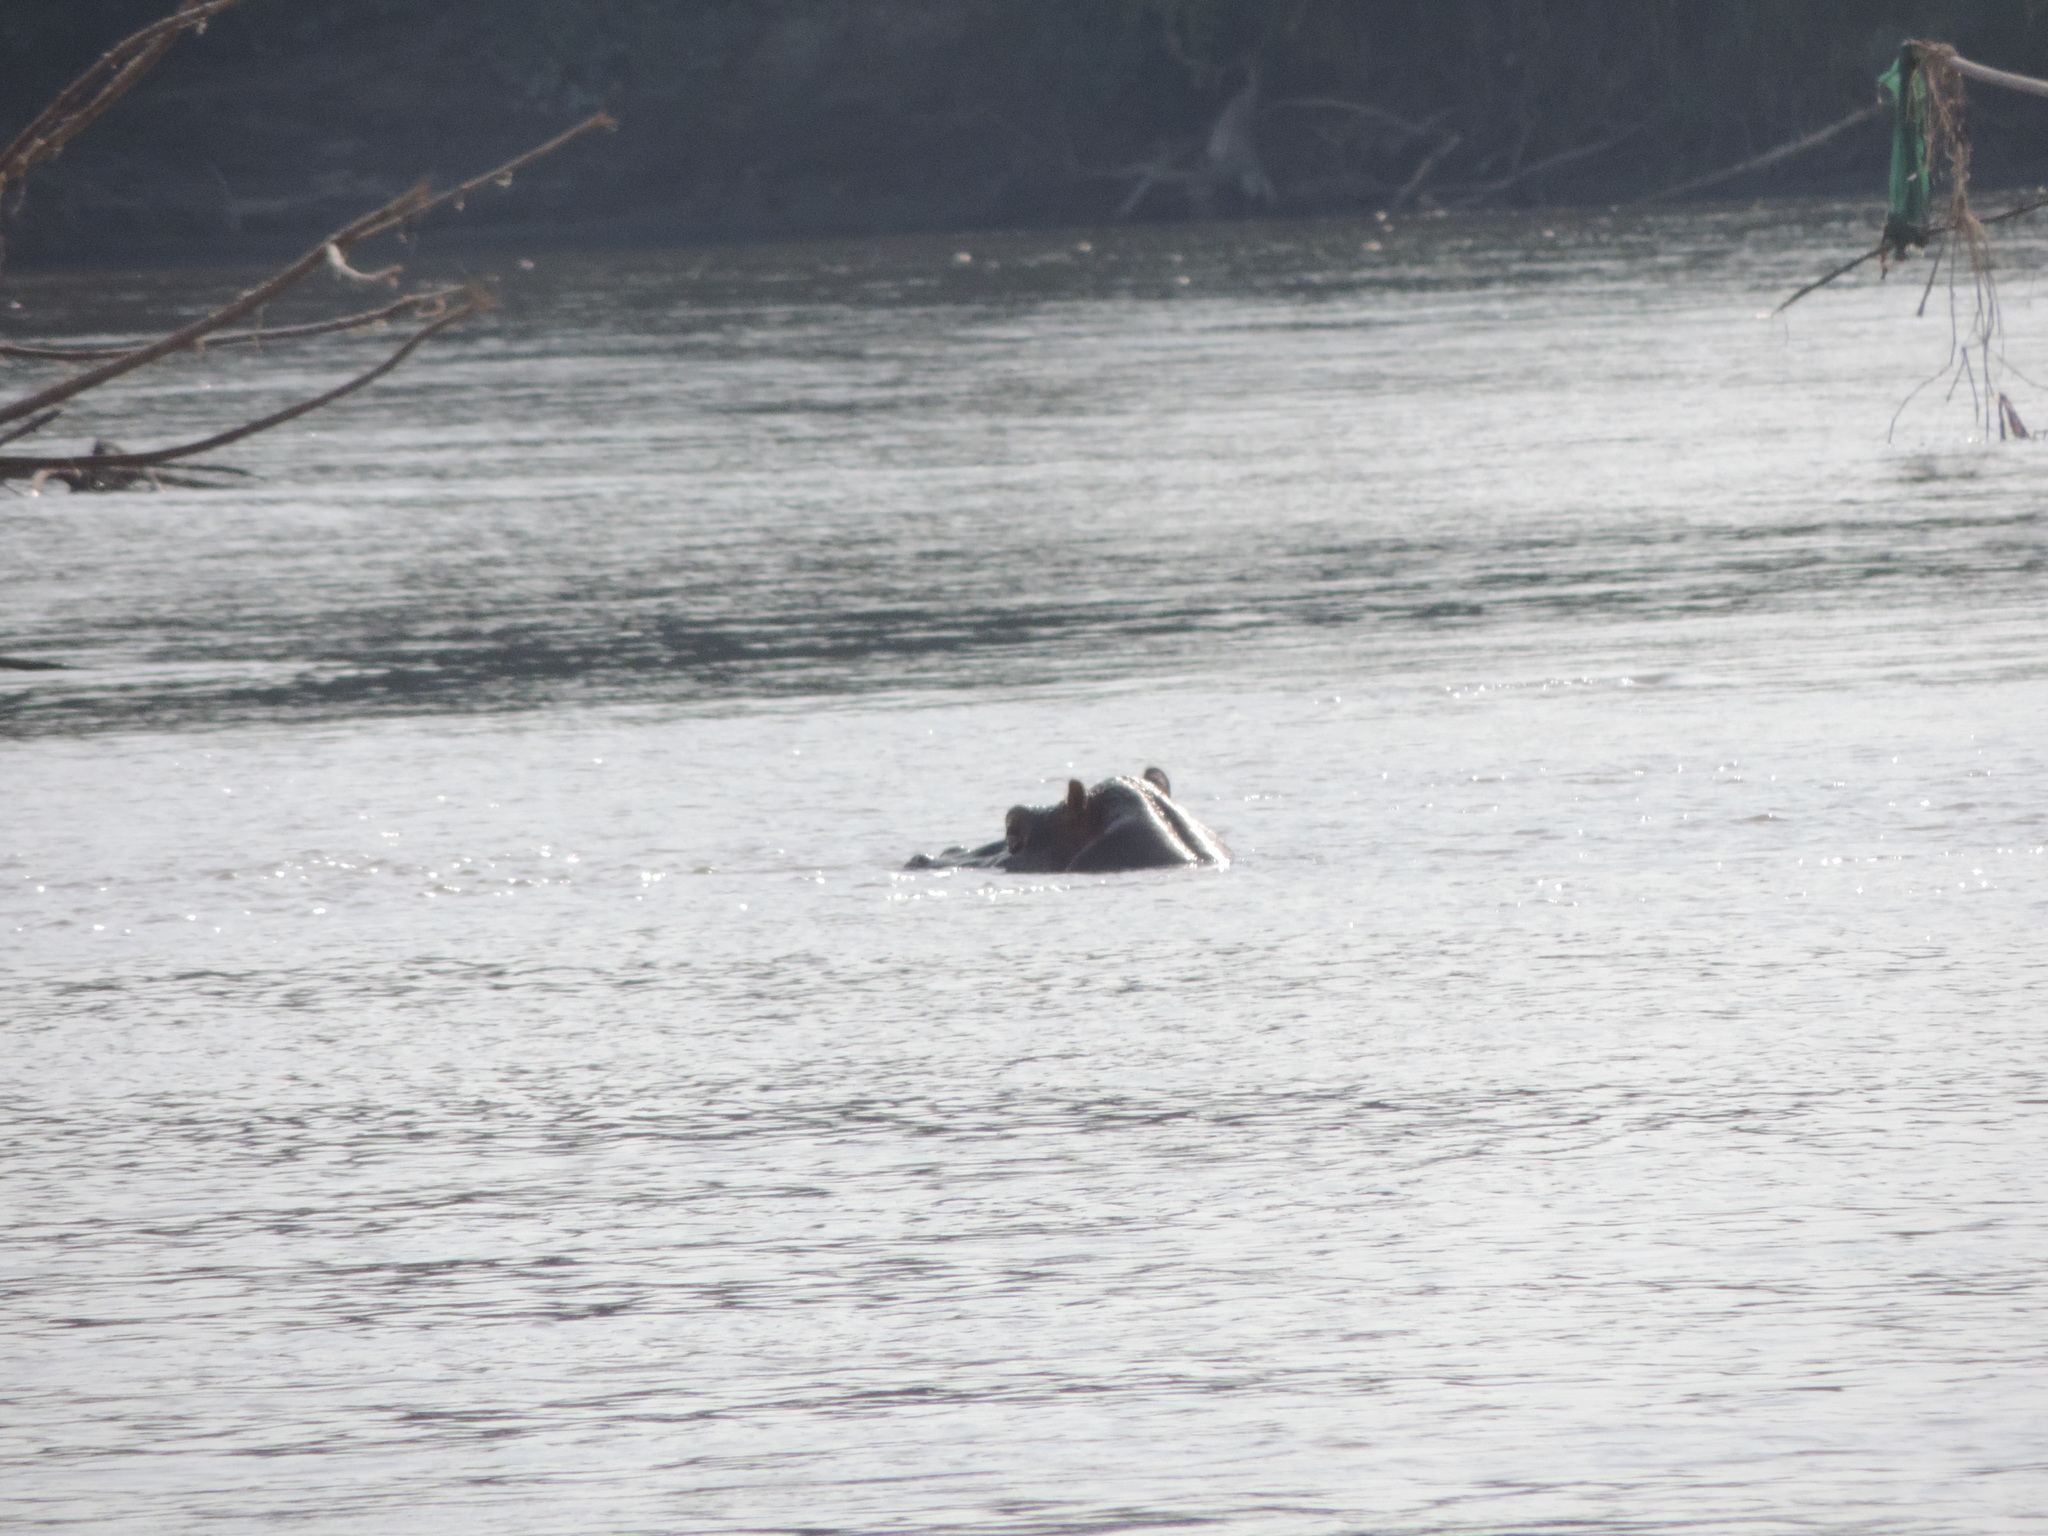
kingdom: Animalia
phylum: Chordata
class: Mammalia
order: Artiodactyla
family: Hippopotamidae
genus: Hippopotamus
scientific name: Hippopotamus amphibius
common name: Common hippopotamus
